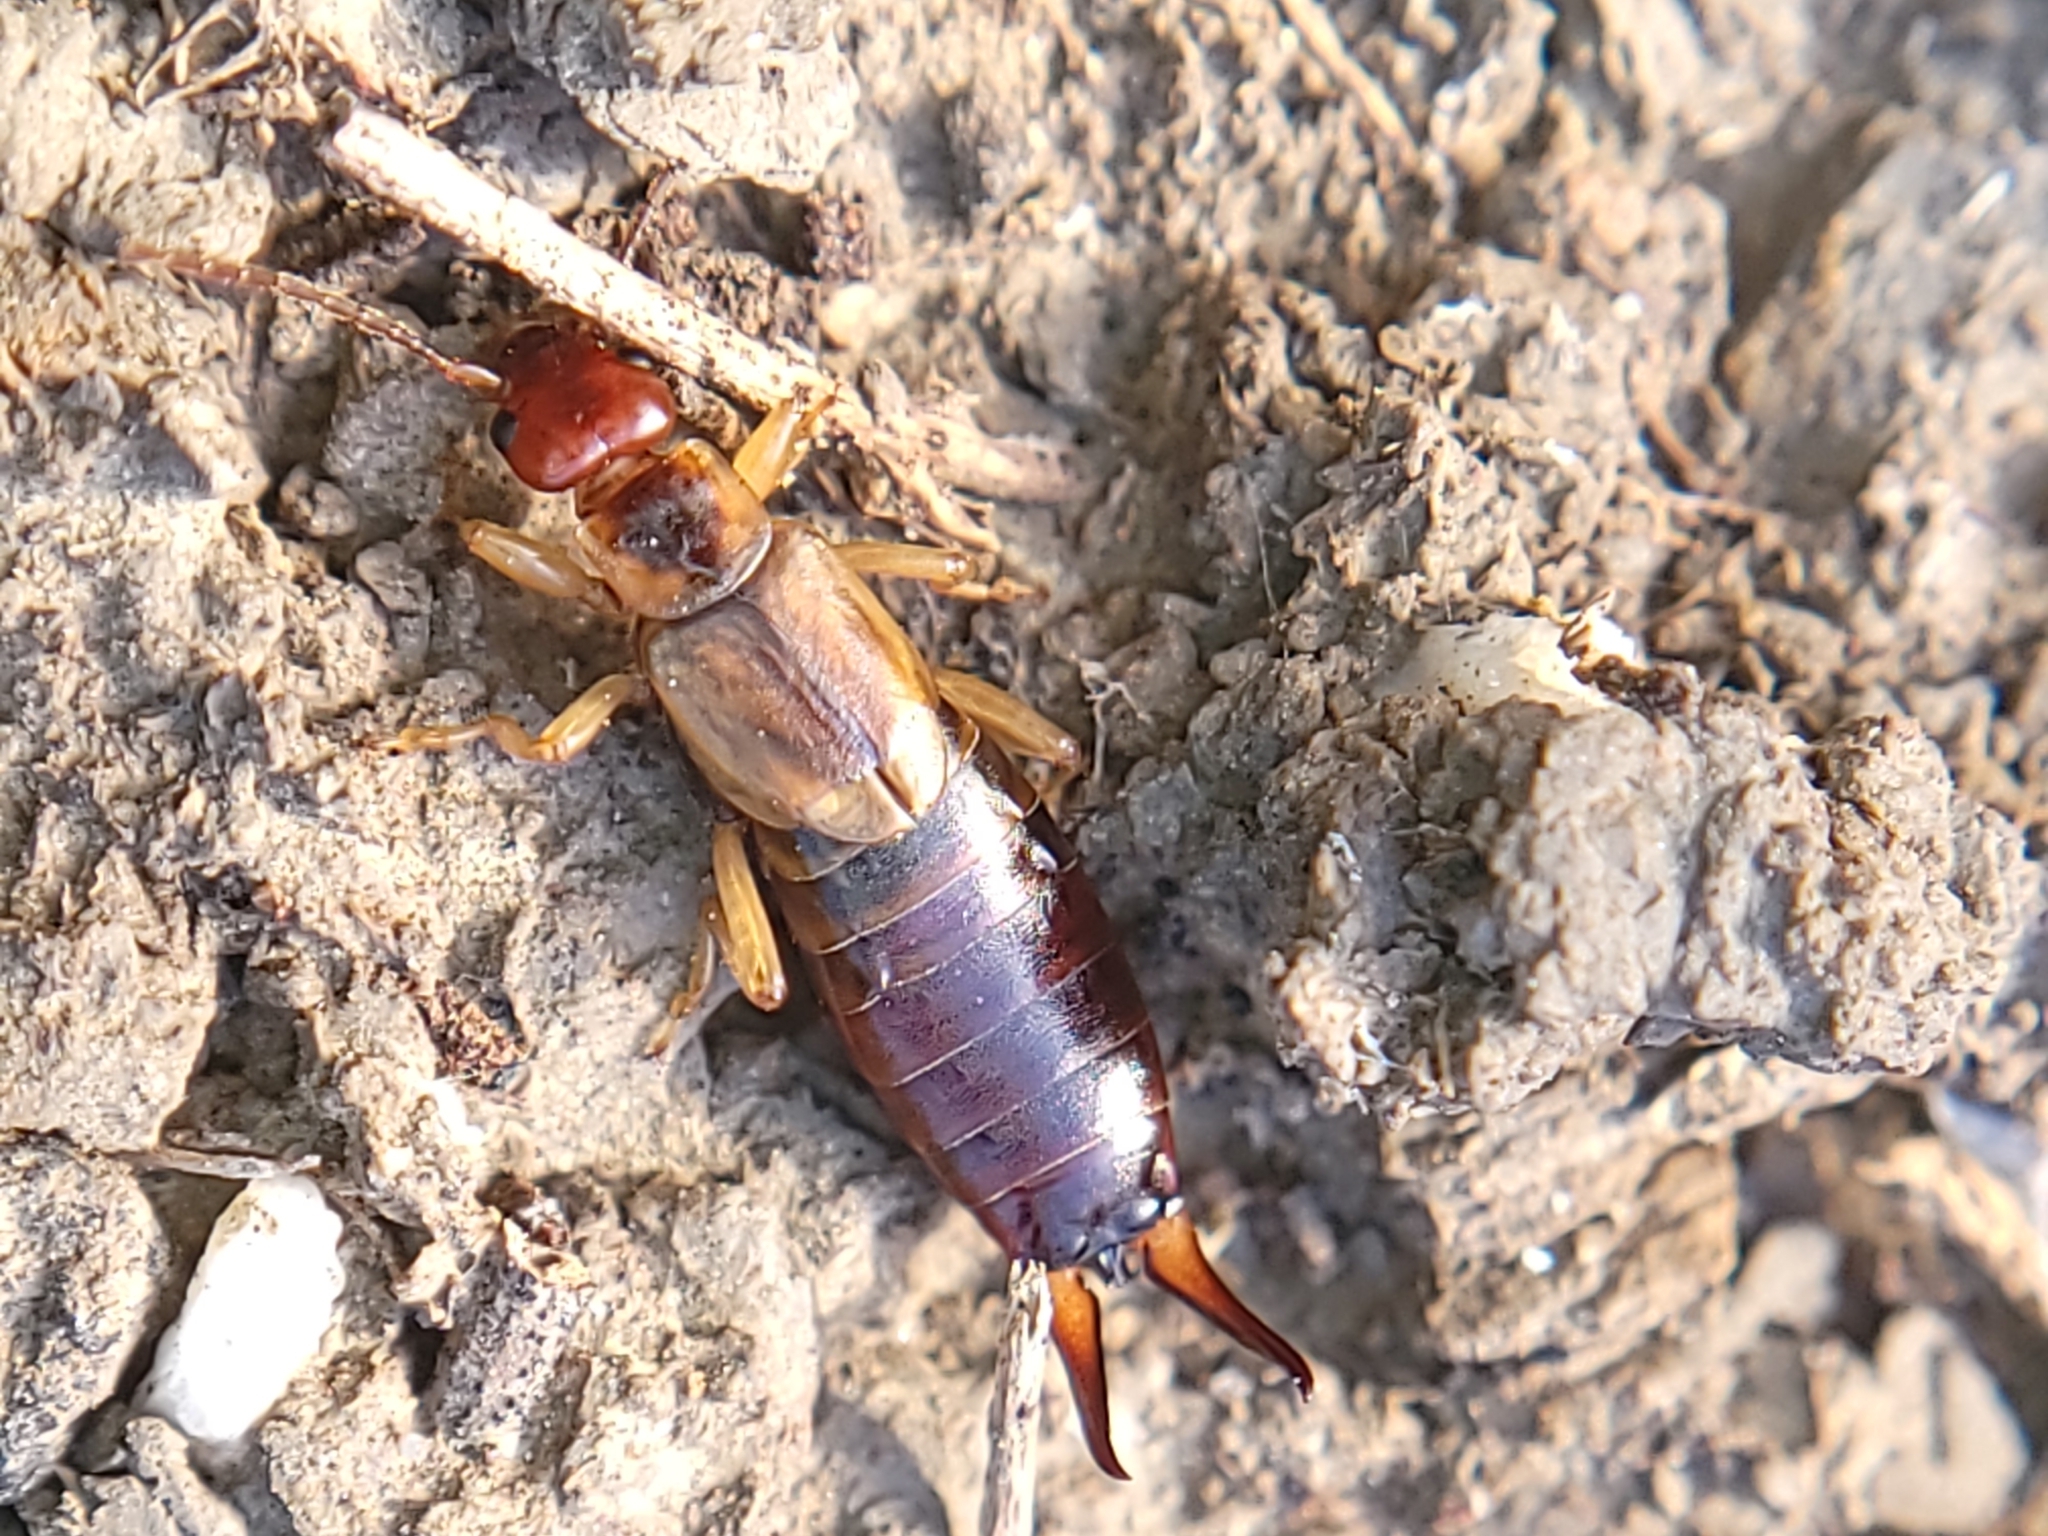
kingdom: Animalia
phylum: Arthropoda
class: Insecta
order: Dermaptera
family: Forficulidae
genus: Forficula
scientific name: Forficula
